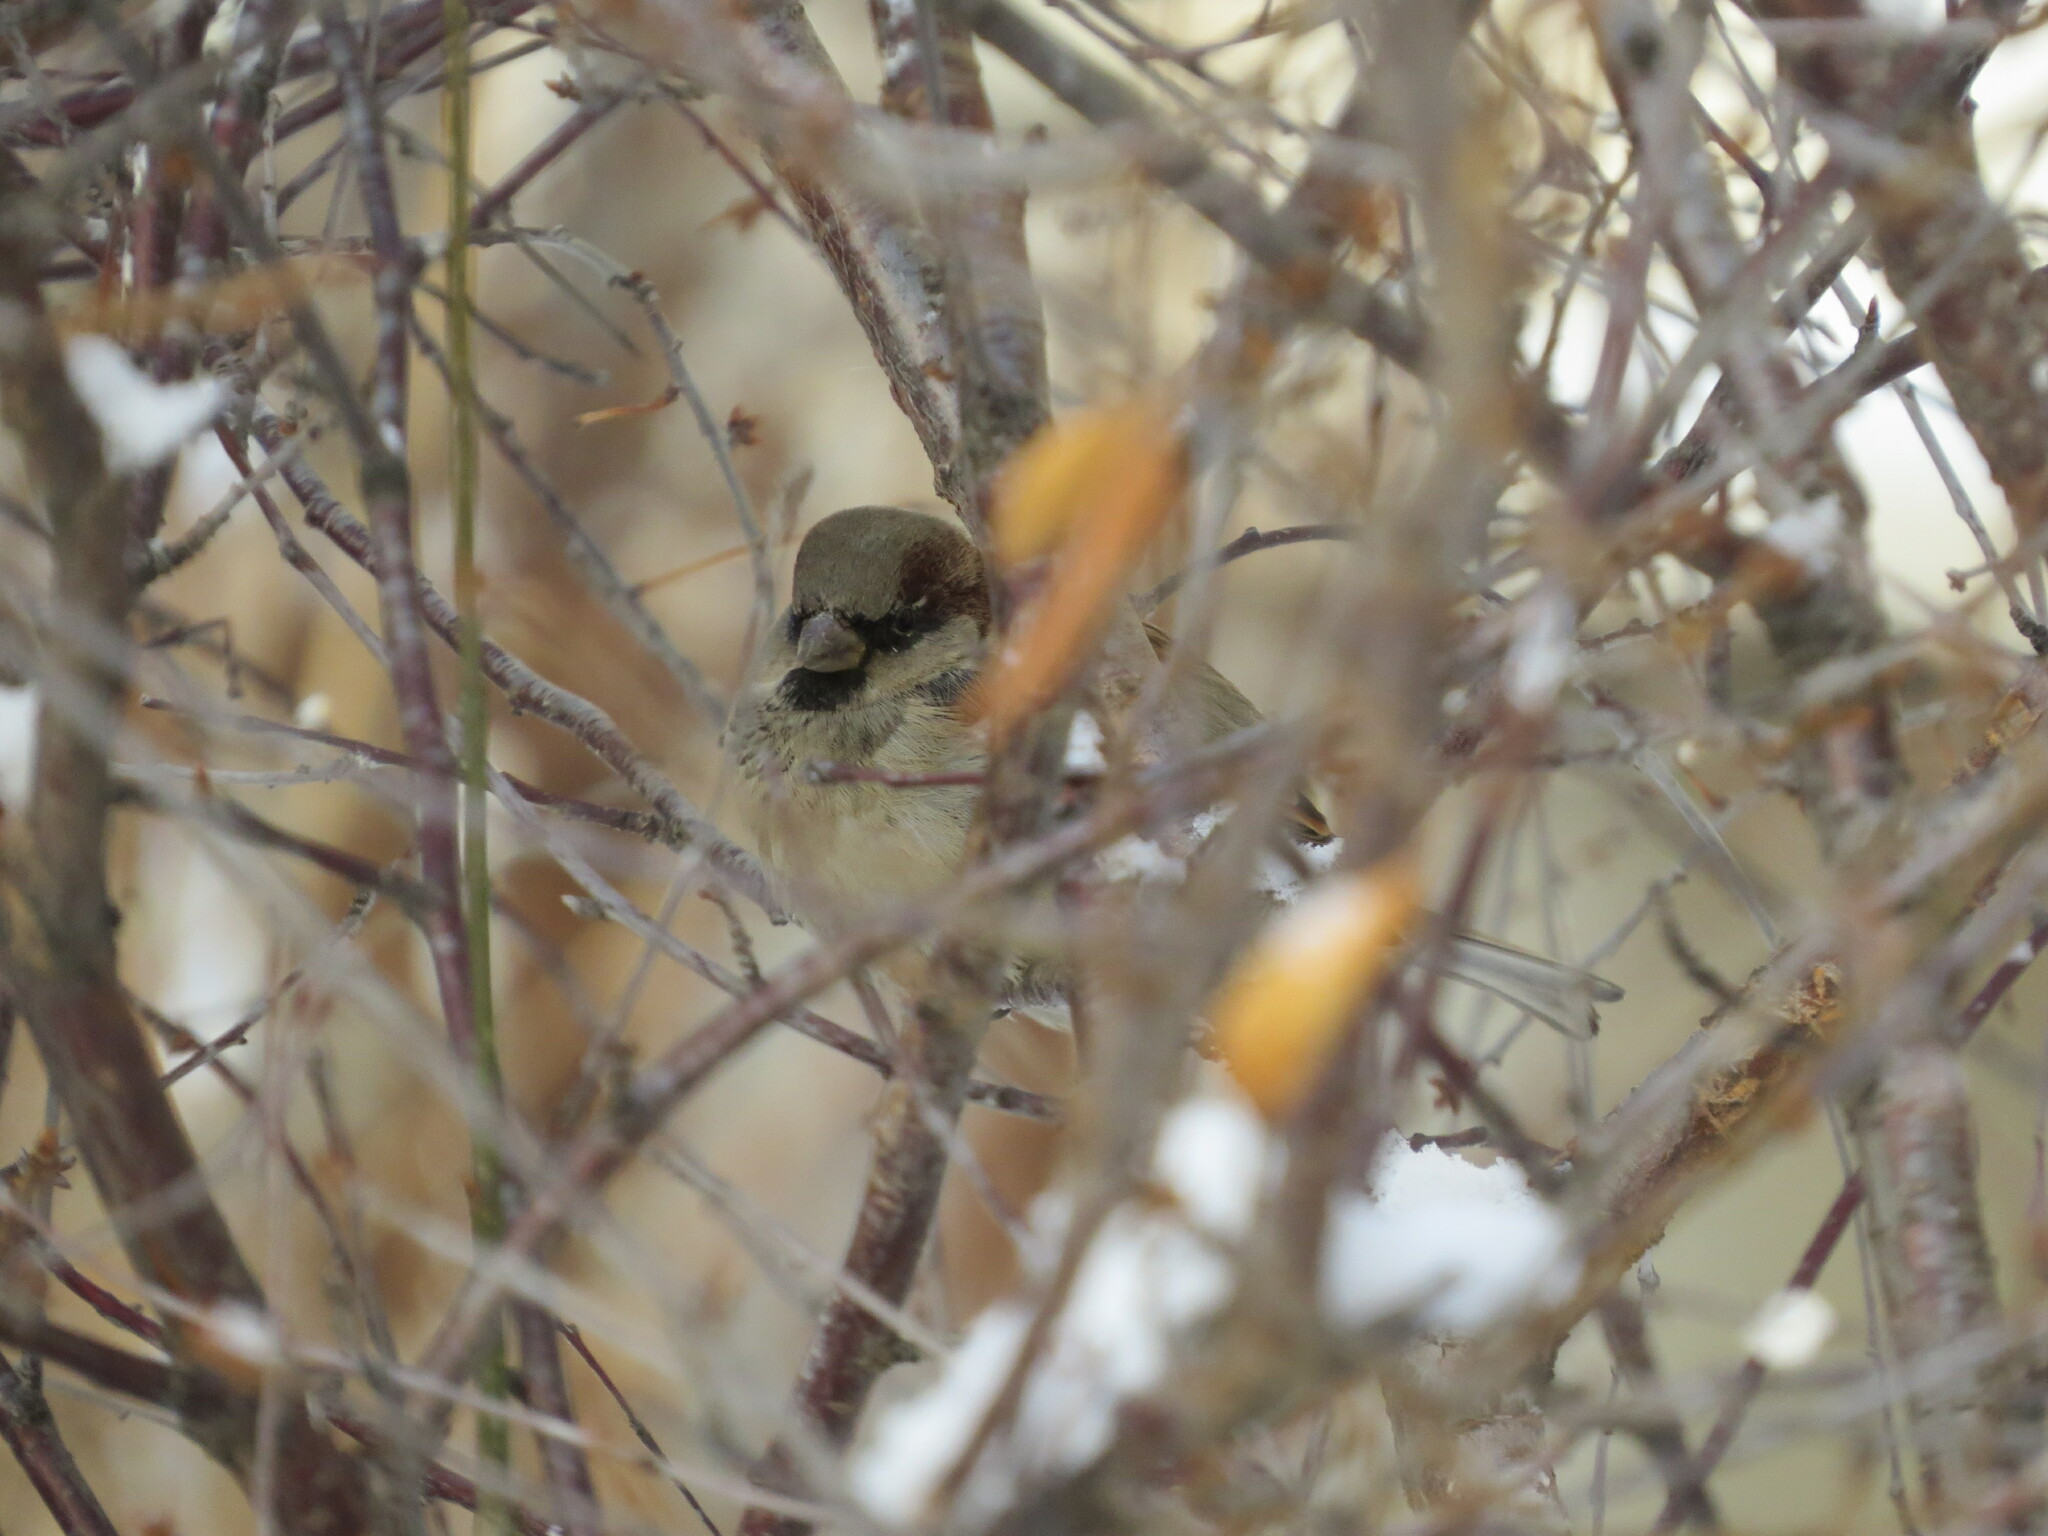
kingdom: Animalia
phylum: Chordata
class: Aves
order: Passeriformes
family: Passeridae
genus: Passer
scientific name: Passer domesticus
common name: House sparrow
